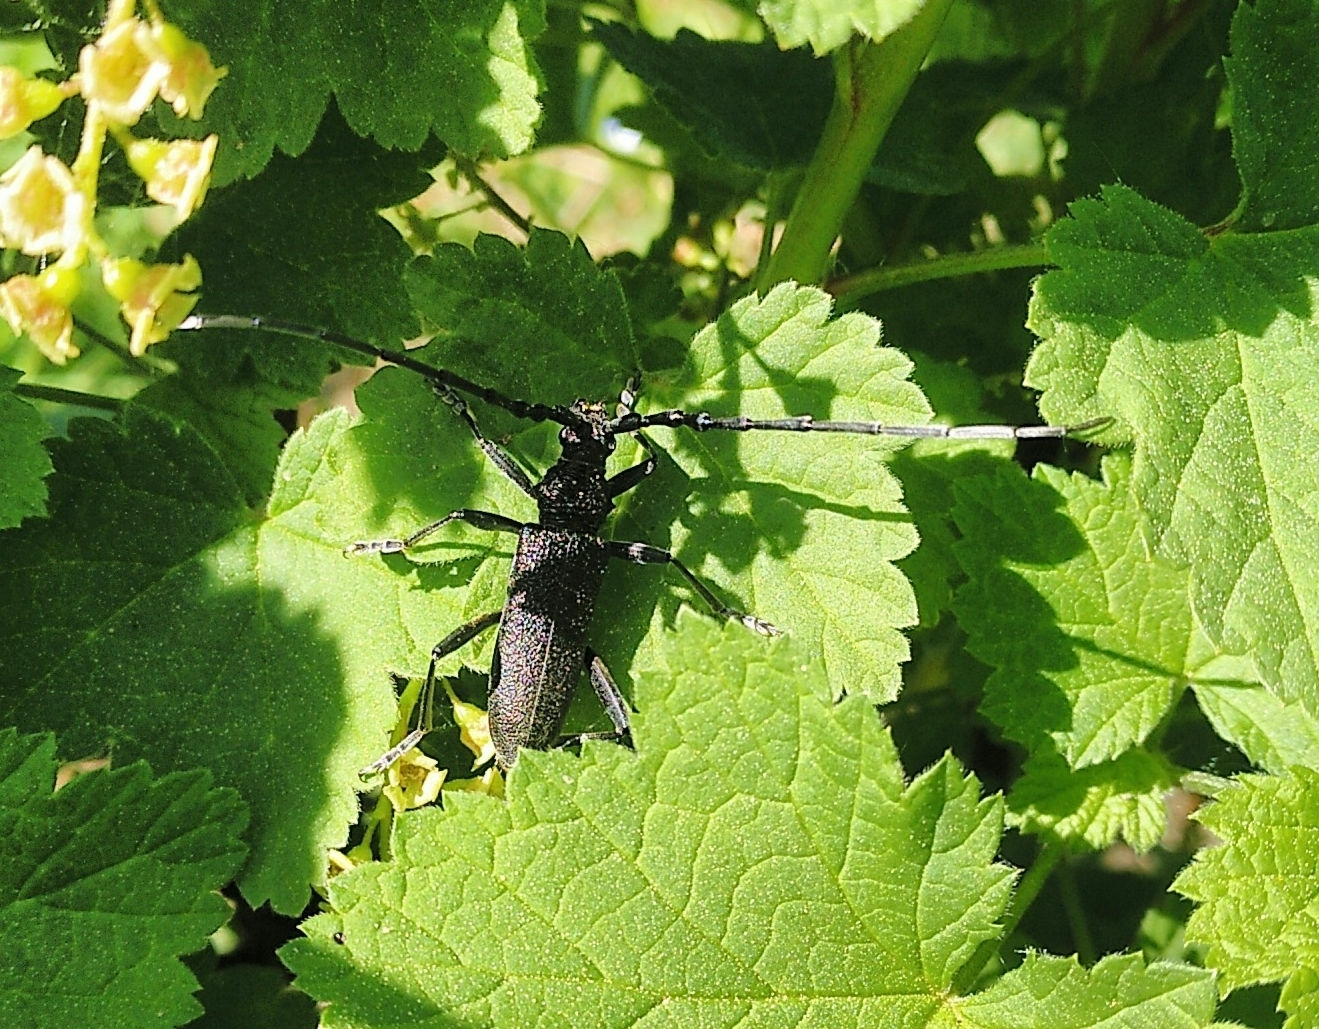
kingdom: Animalia
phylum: Arthropoda
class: Insecta
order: Coleoptera
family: Cerambycidae
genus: Cerambyx
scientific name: Cerambyx scopolii
